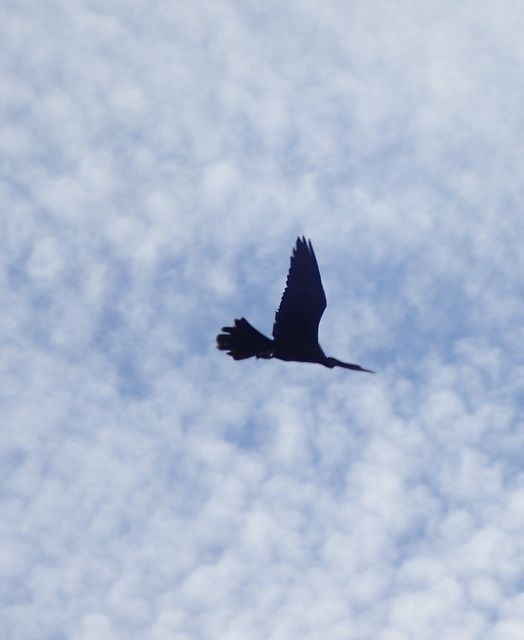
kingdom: Animalia
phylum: Chordata
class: Aves
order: Suliformes
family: Anhingidae
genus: Anhinga
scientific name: Anhinga anhinga
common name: Anhinga
